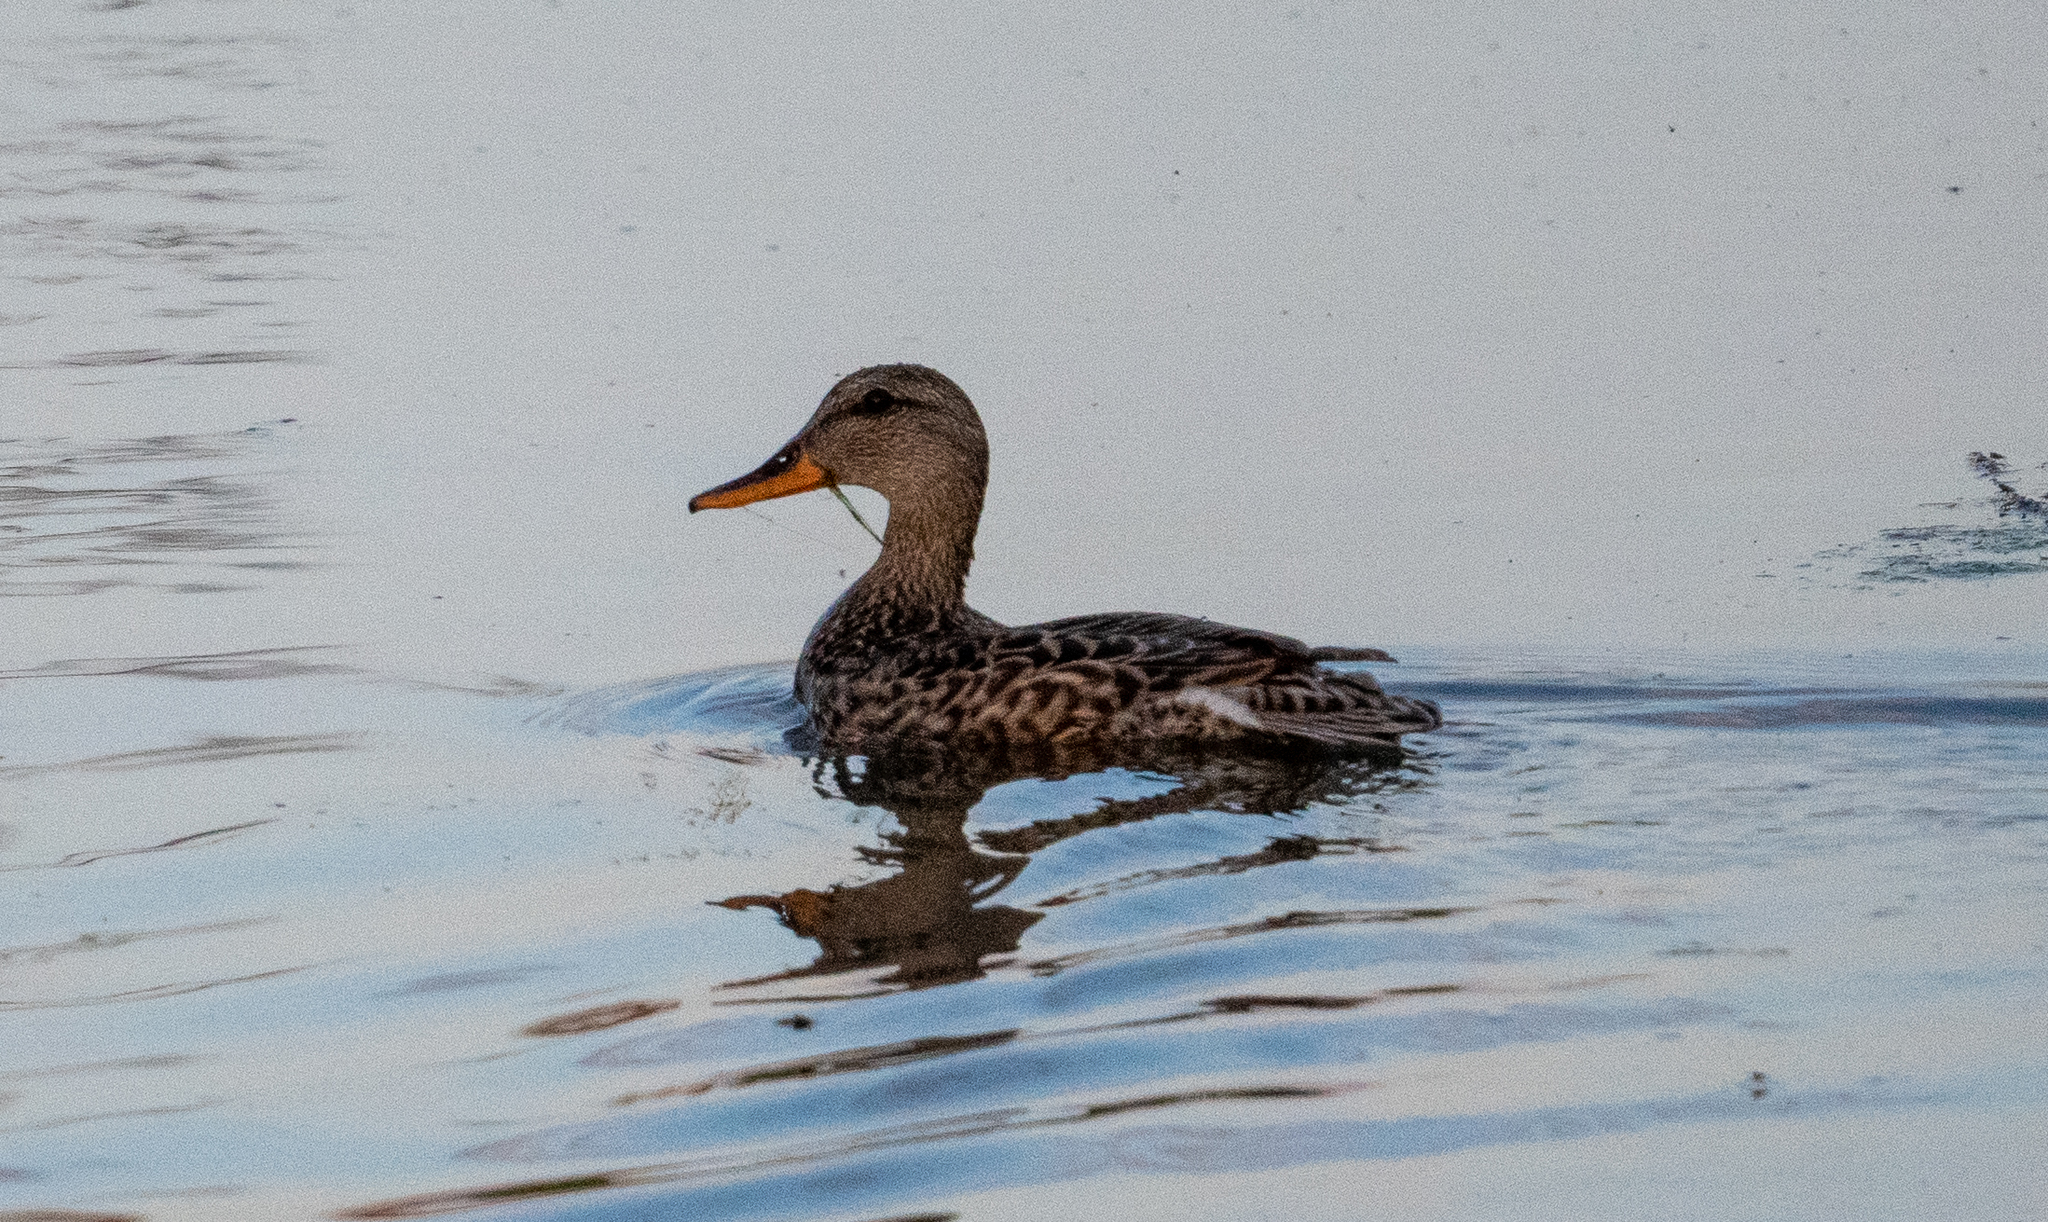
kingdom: Animalia
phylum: Chordata
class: Aves
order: Anseriformes
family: Anatidae
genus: Mareca
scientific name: Mareca strepera
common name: Gadwall
